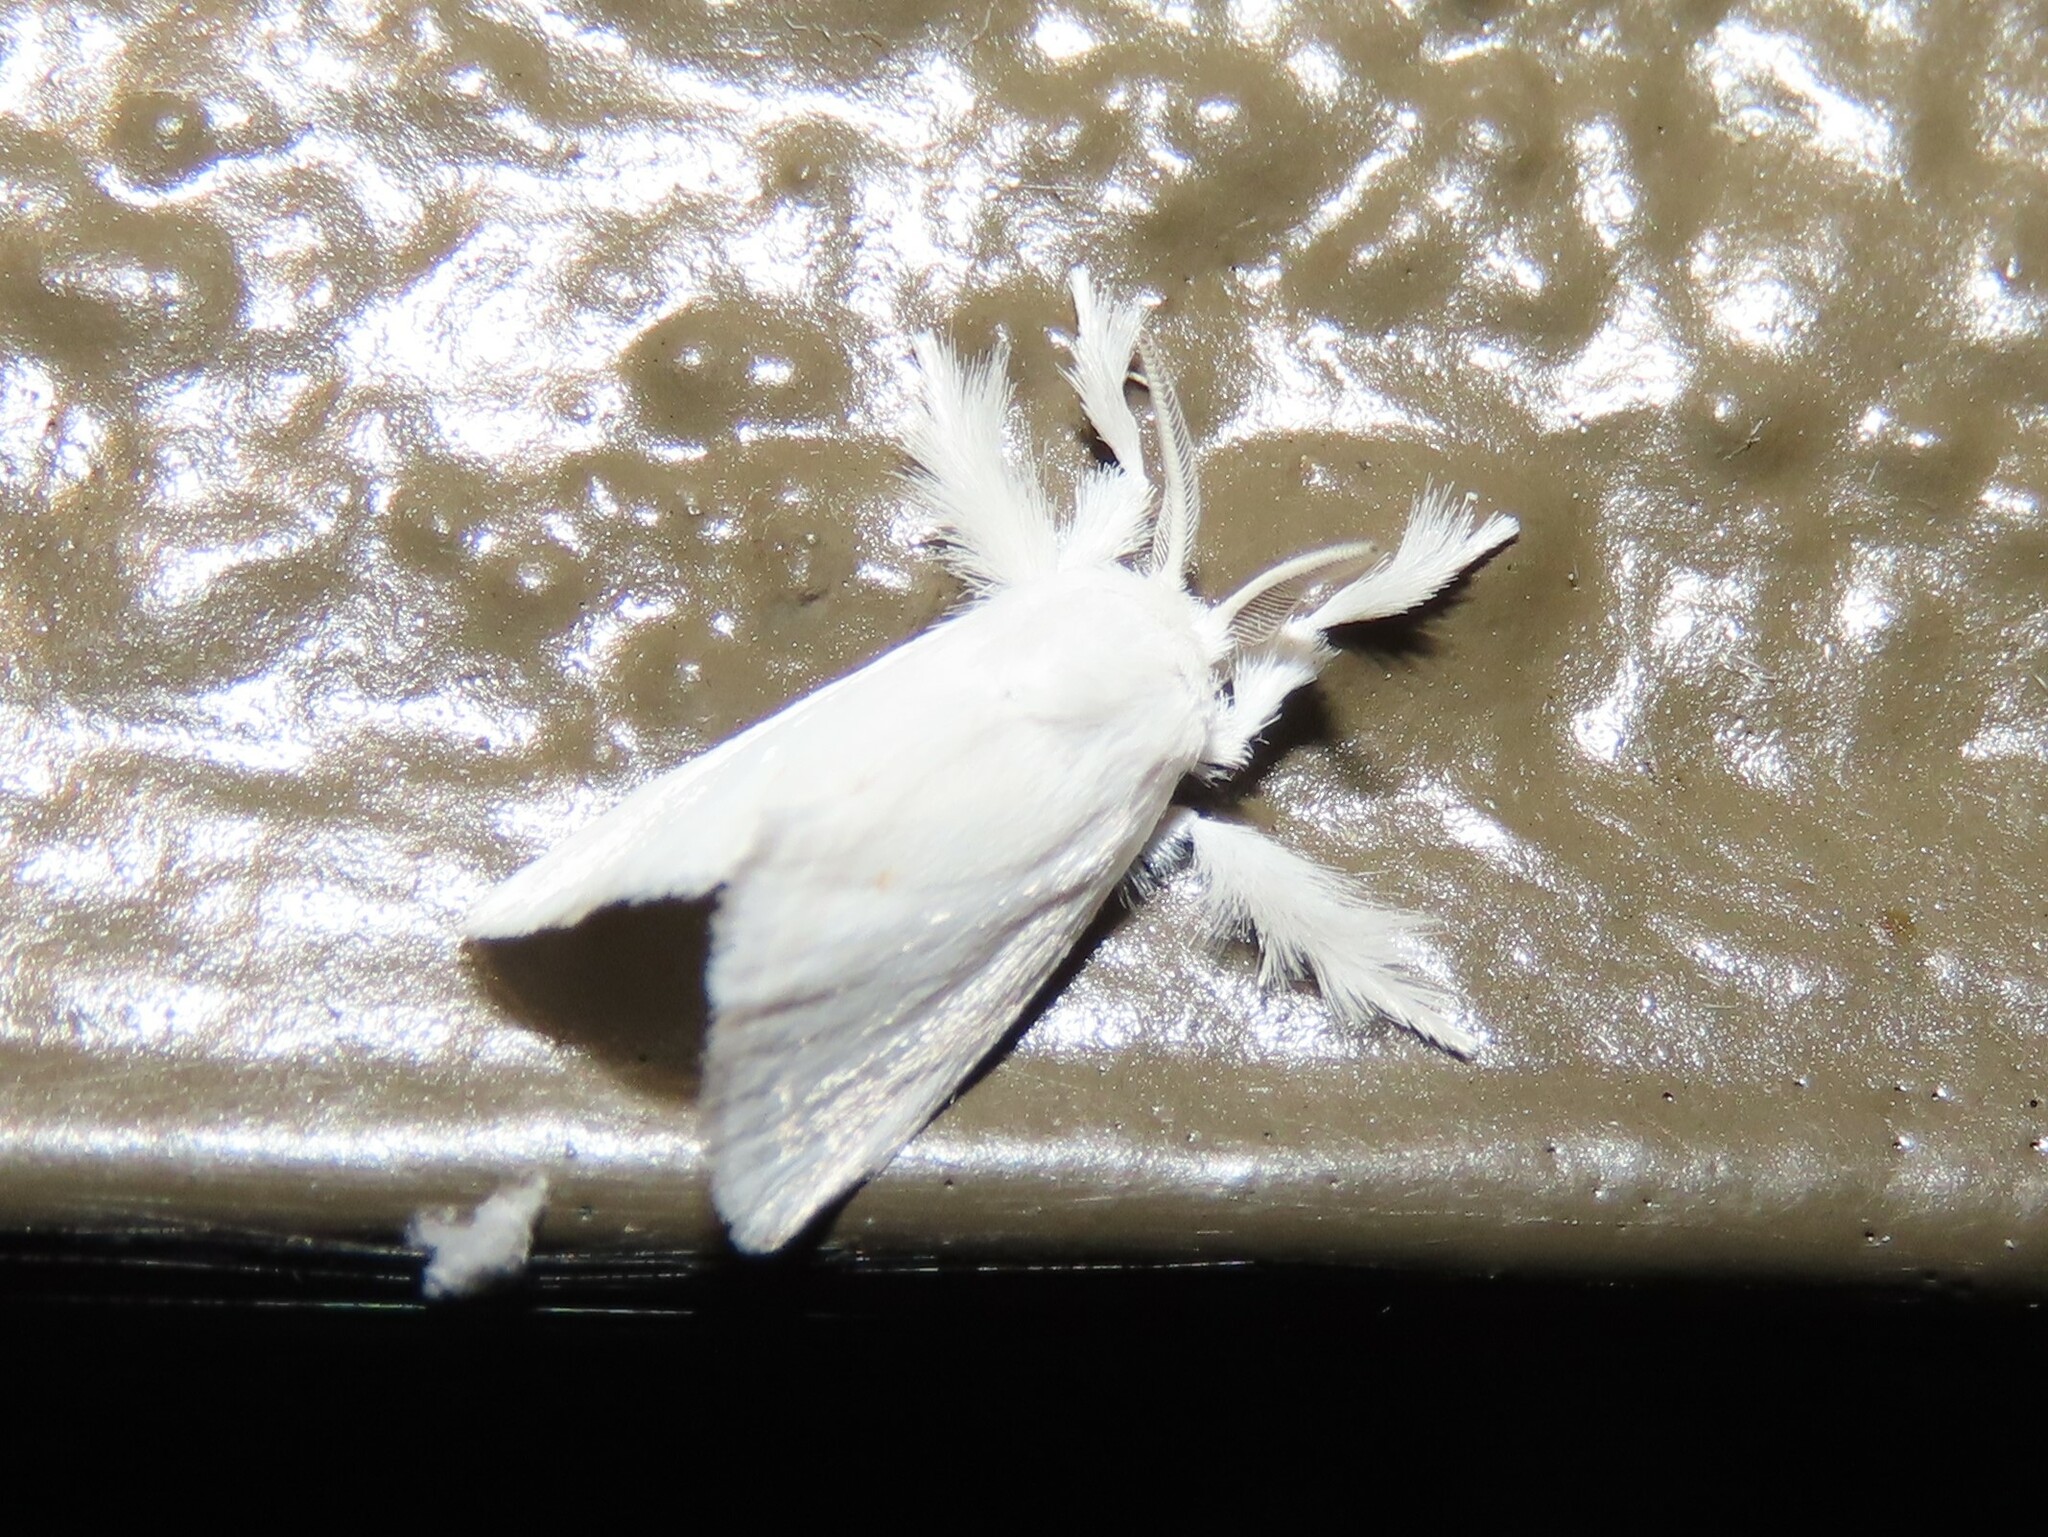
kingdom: Animalia
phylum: Arthropoda
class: Insecta
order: Lepidoptera
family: Limacodidae
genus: Alarodia
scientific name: Alarodia slossoniae
